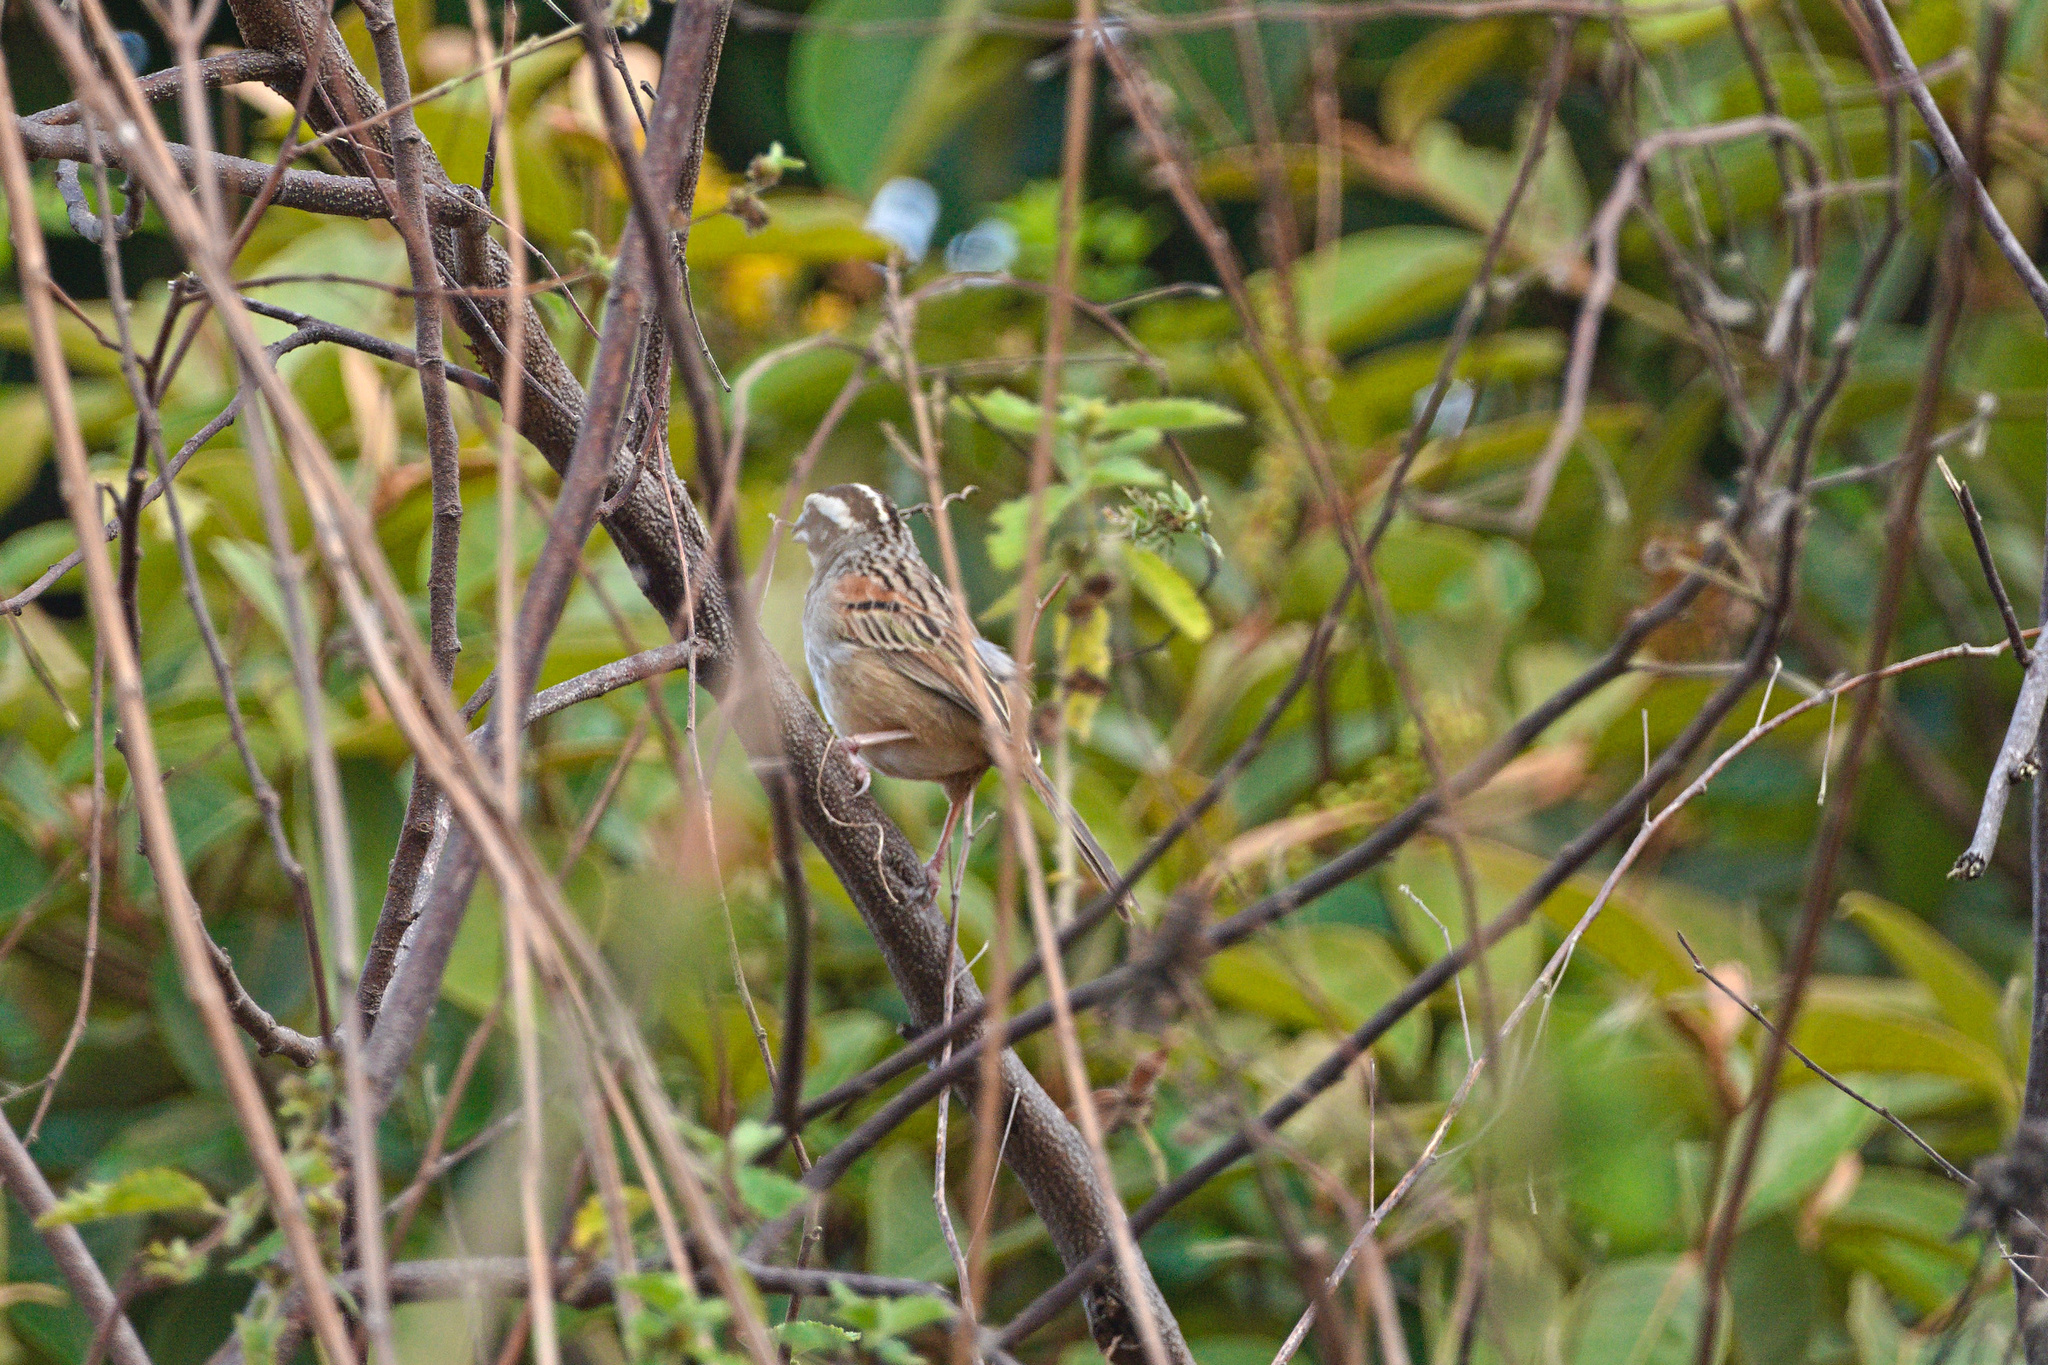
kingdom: Animalia
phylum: Chordata
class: Aves
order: Passeriformes
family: Passerellidae
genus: Peucaea
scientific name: Peucaea ruficauda
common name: Stripe-headed sparrow
